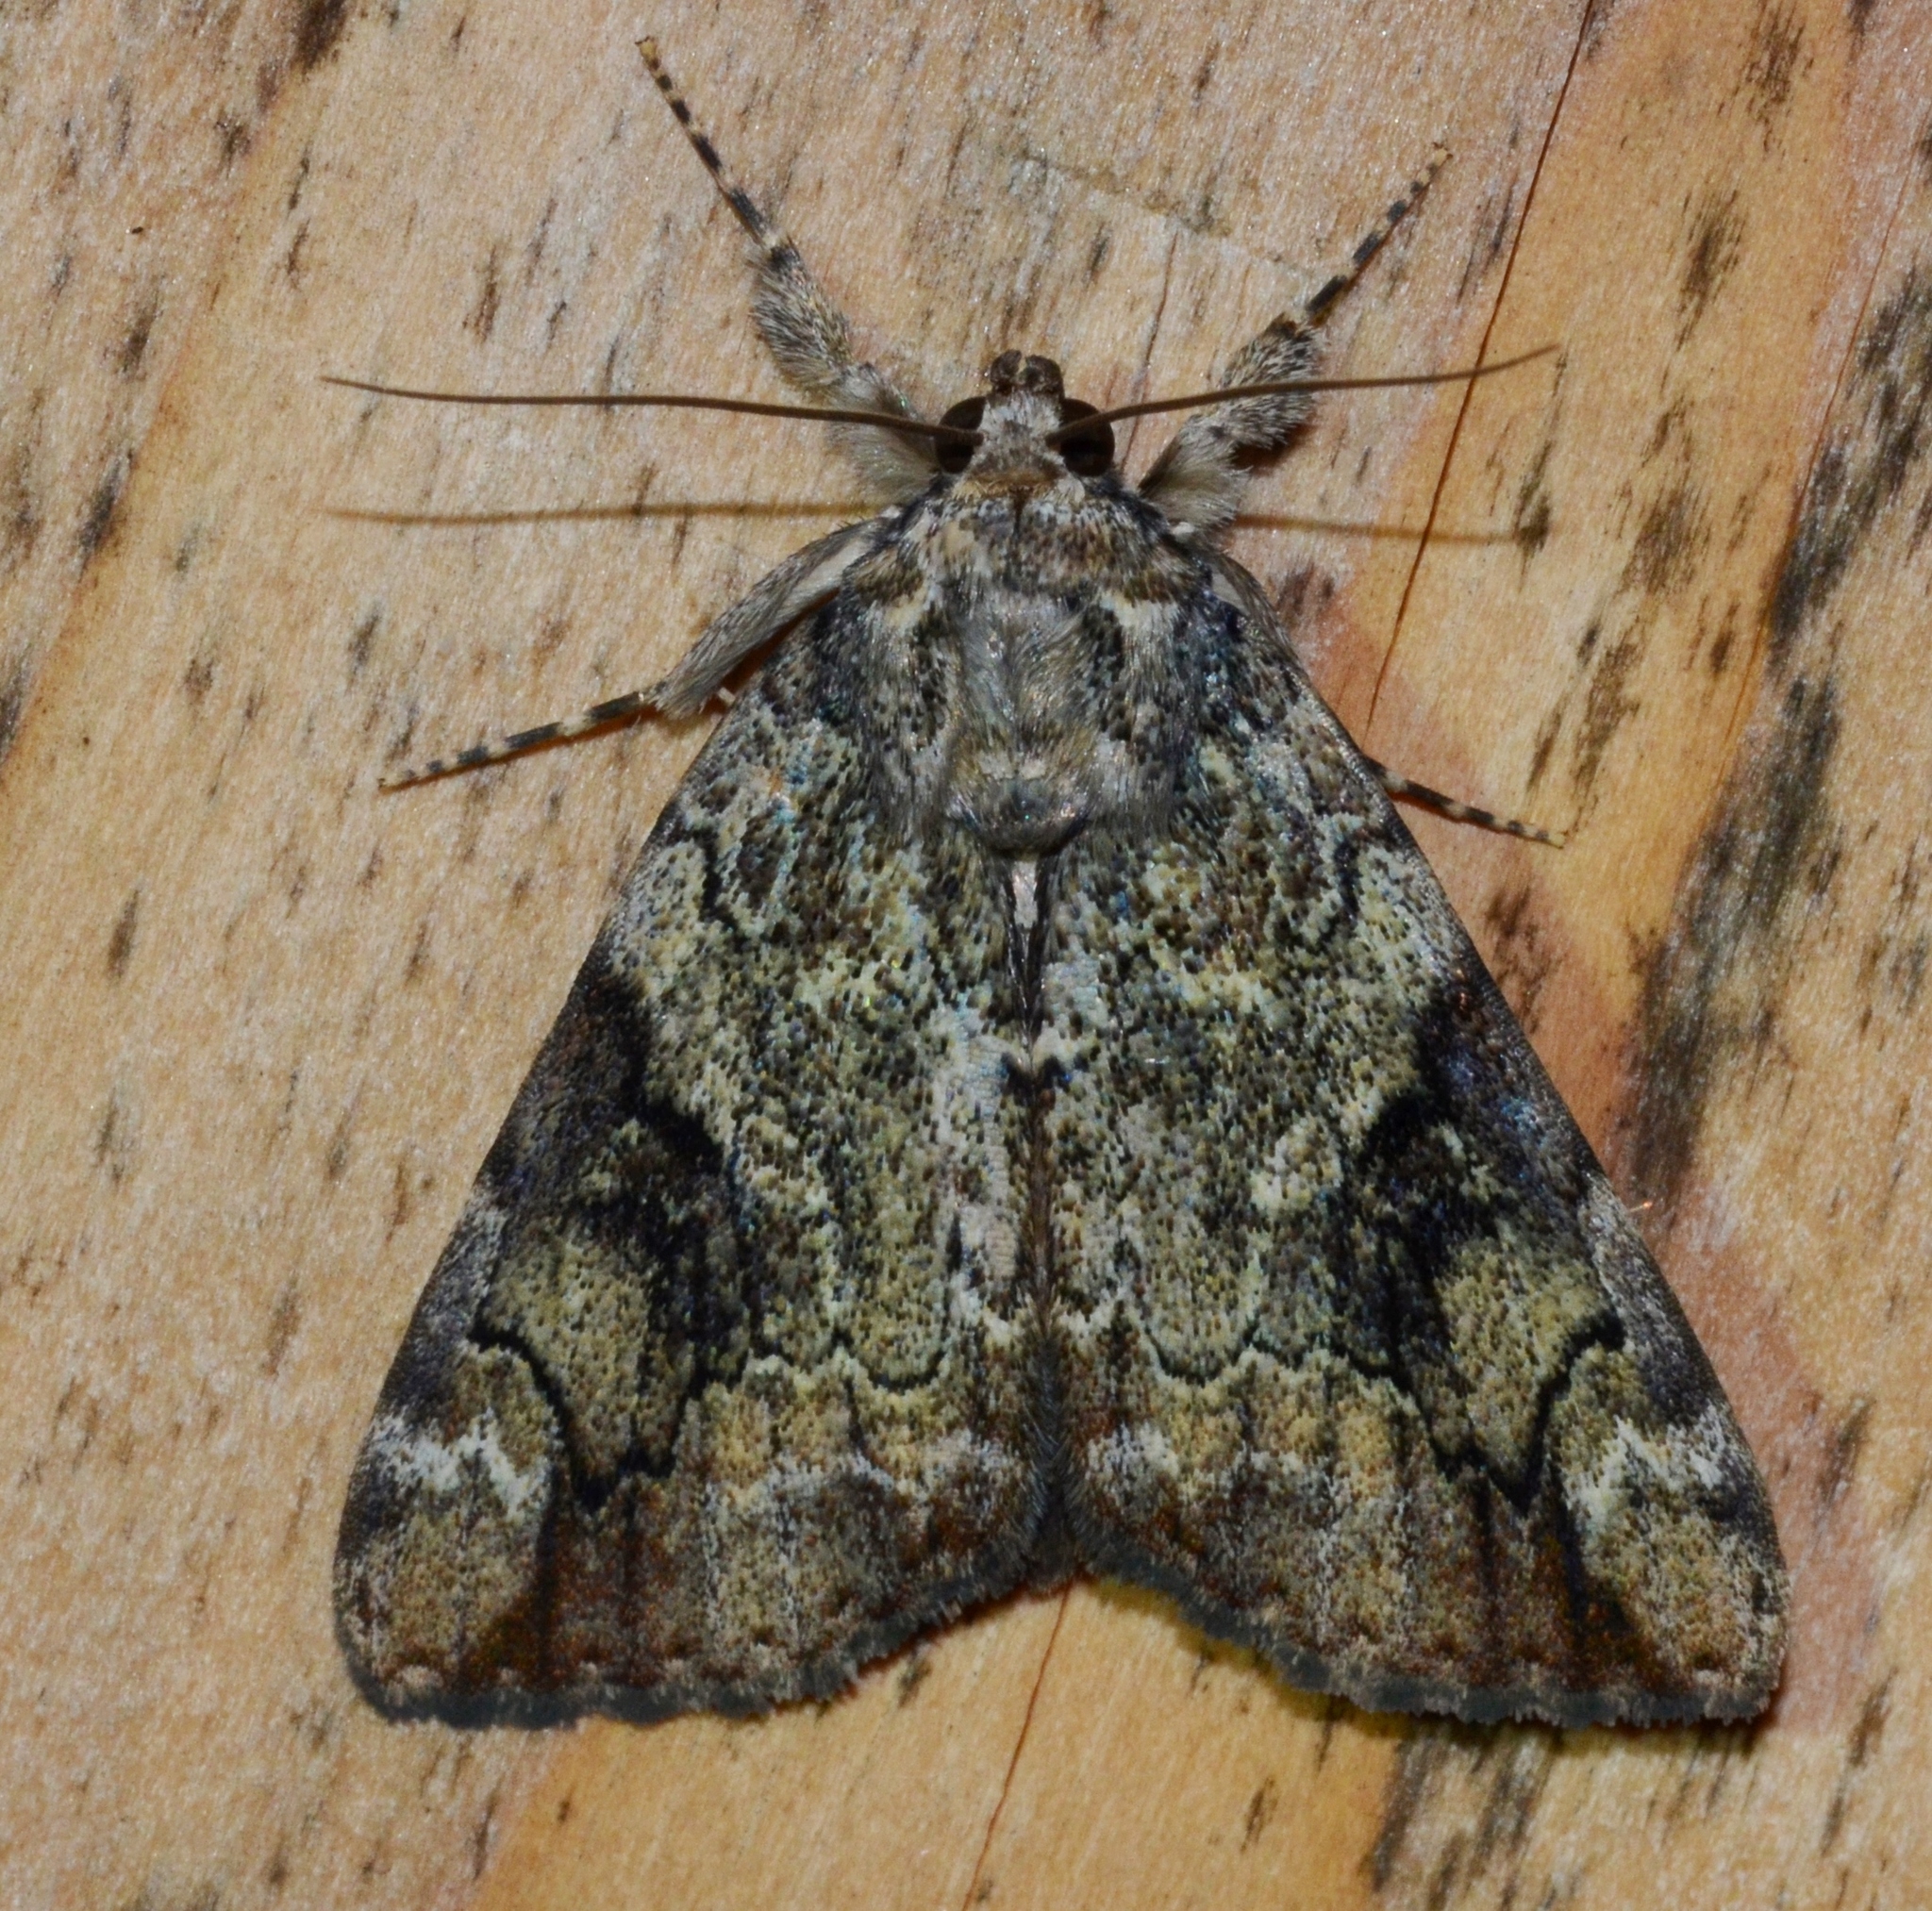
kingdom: Animalia
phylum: Arthropoda
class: Insecta
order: Lepidoptera
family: Erebidae
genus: Catocala
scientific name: Catocala micronympha
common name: Little nymph underwing
